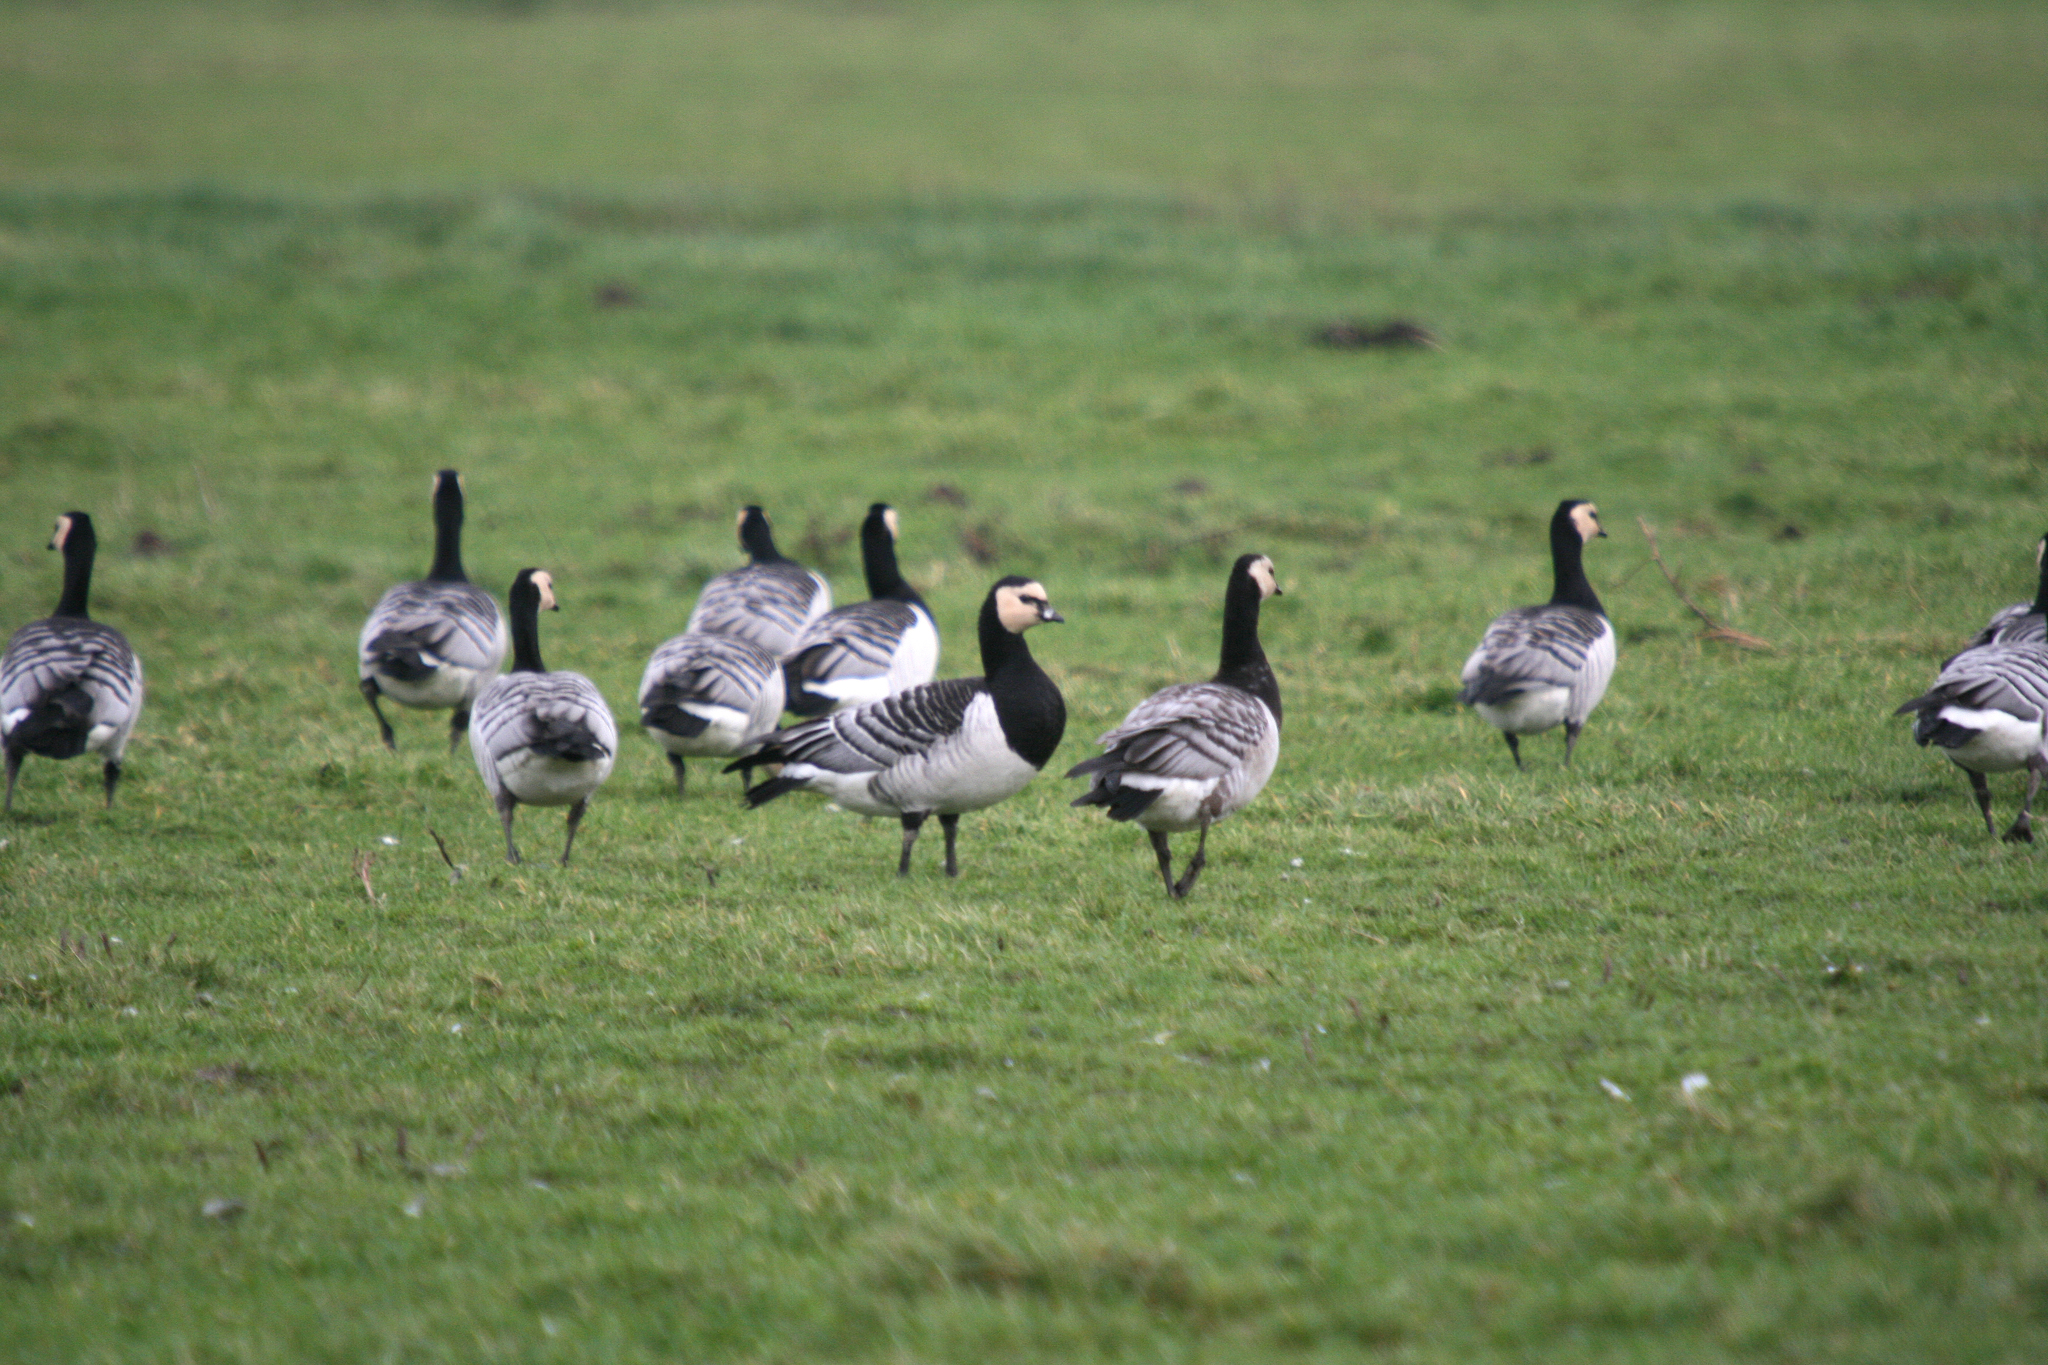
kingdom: Animalia
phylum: Chordata
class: Aves
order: Anseriformes
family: Anatidae
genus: Branta
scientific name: Branta leucopsis
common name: Barnacle goose
